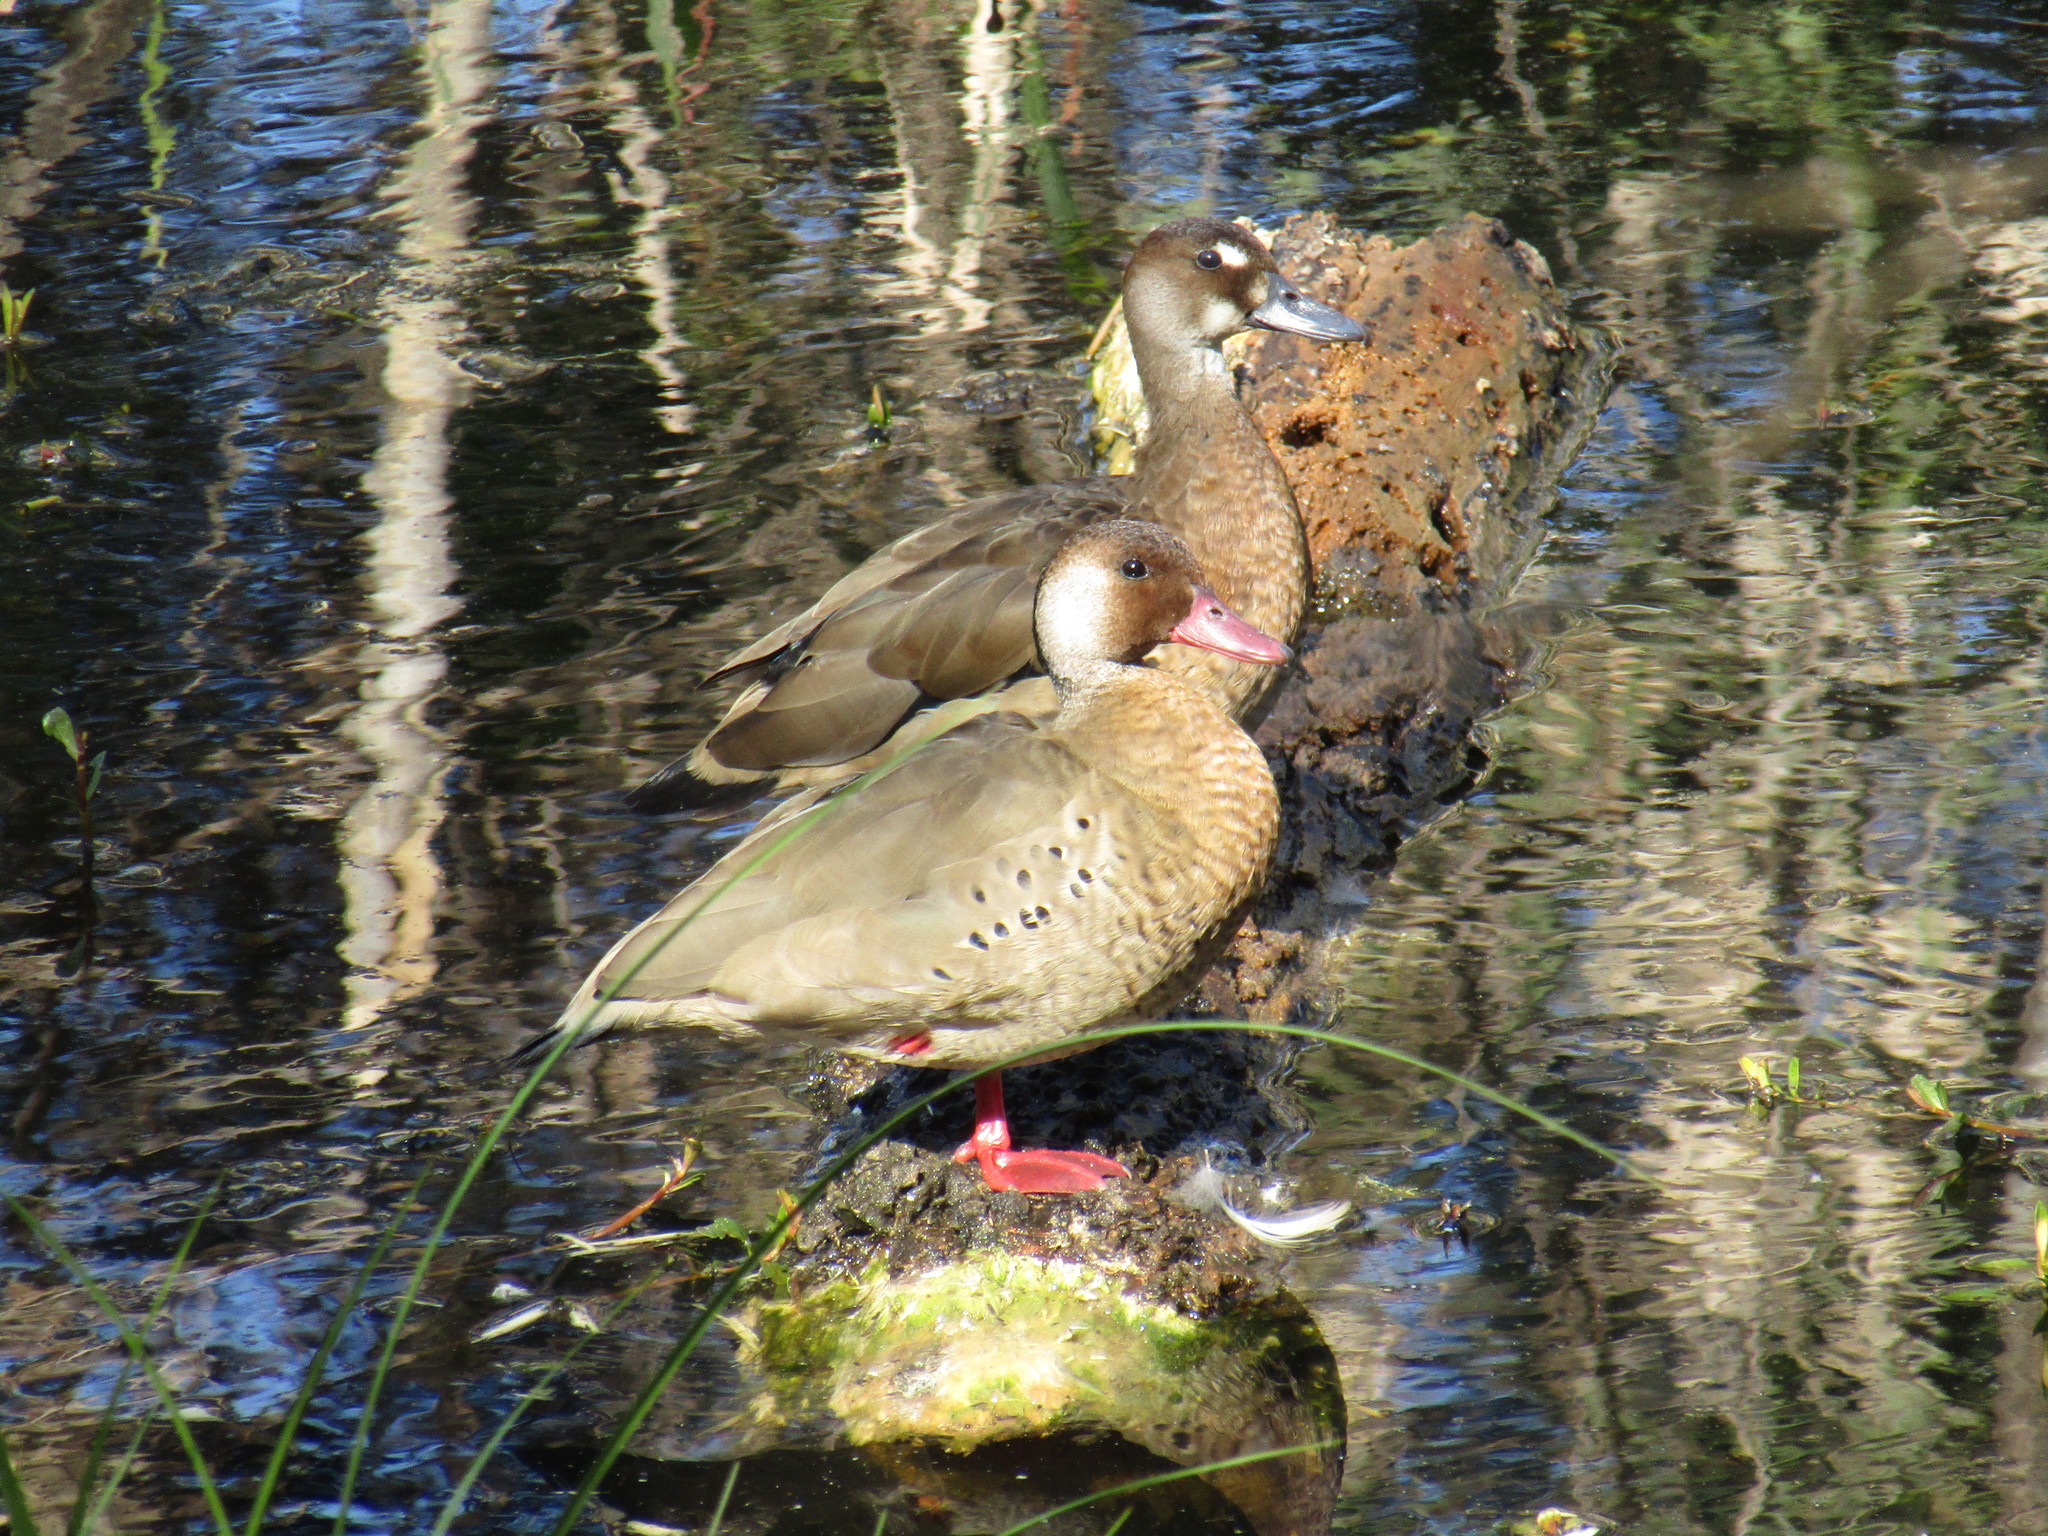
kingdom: Animalia
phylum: Chordata
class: Aves
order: Anseriformes
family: Anatidae
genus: Amazonetta
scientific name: Amazonetta brasiliensis
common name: Brazilian teal
